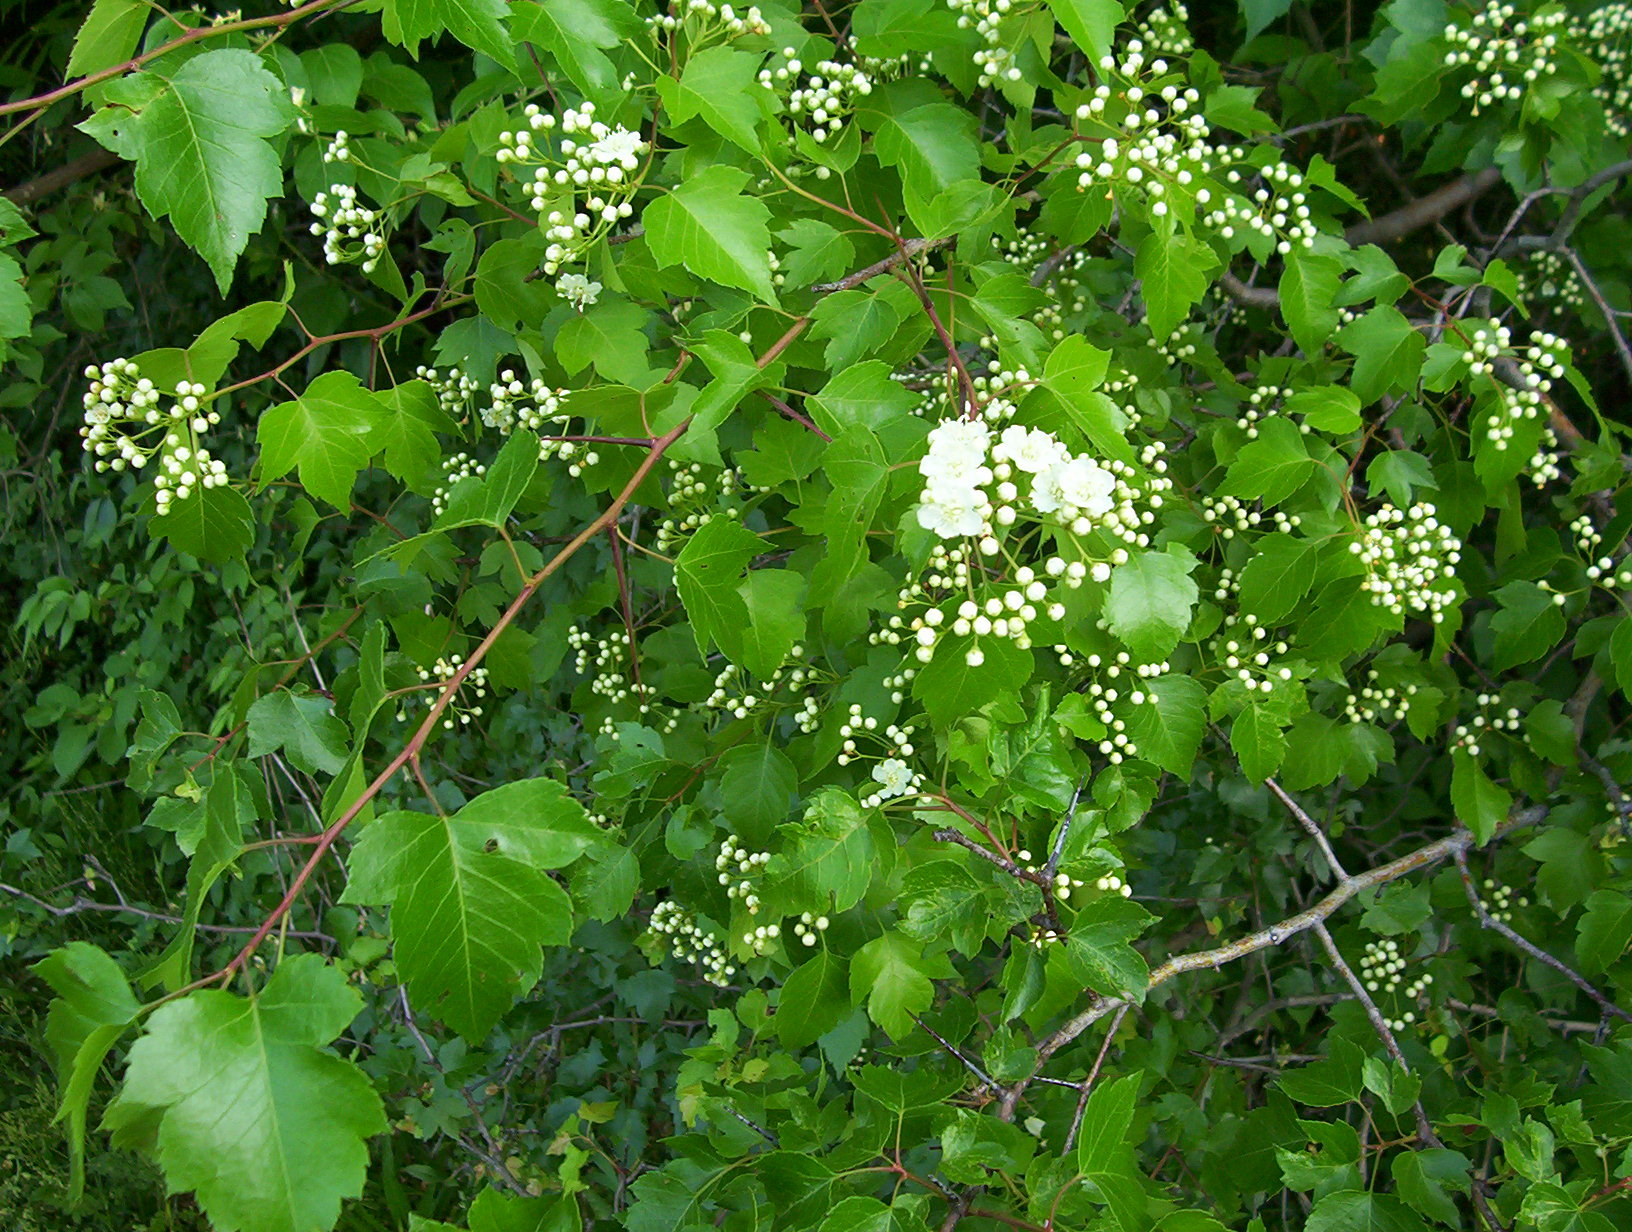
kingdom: Plantae
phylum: Tracheophyta
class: Magnoliopsida
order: Rosales
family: Rosaceae
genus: Crataegus
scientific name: Crataegus phaenopyrum
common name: Washington hawthorn
